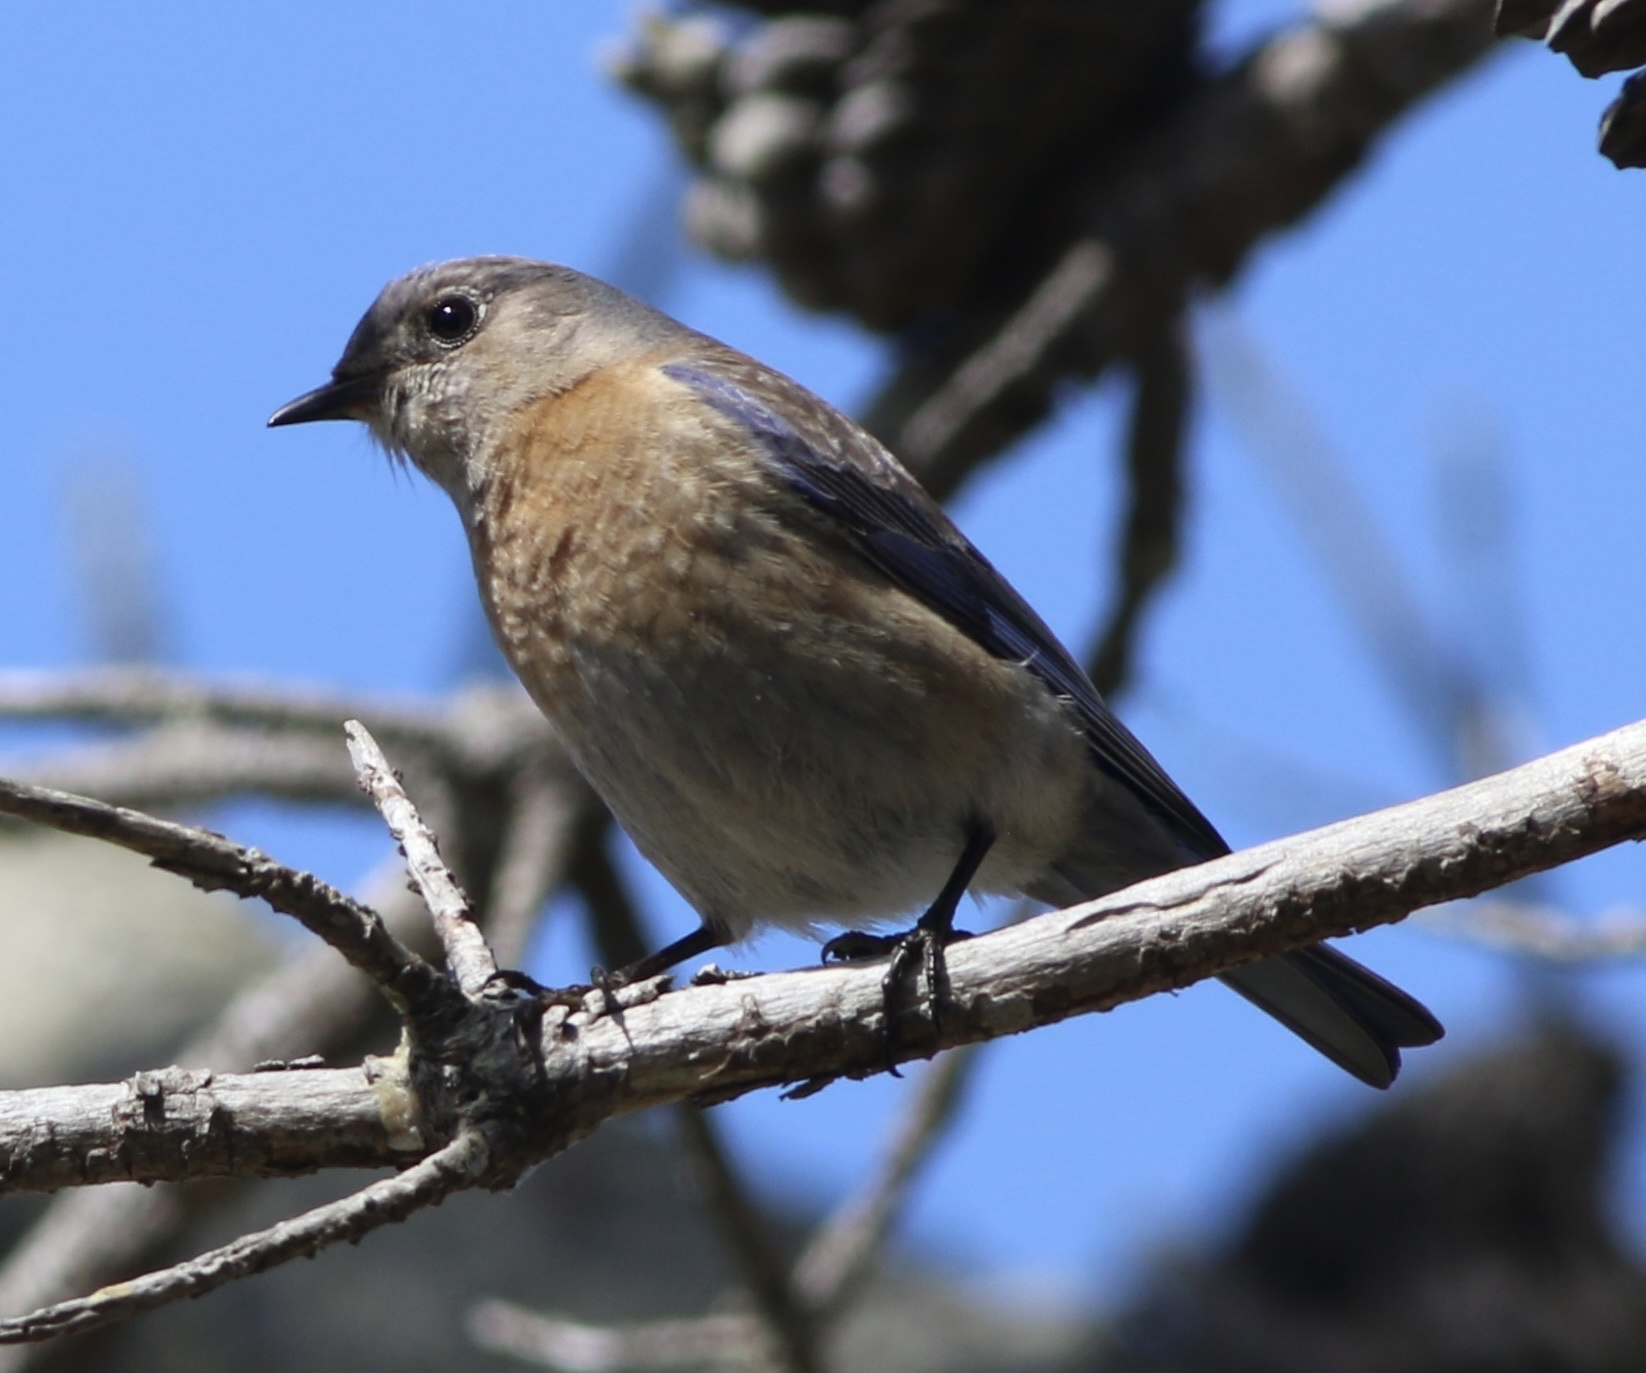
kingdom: Animalia
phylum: Chordata
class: Aves
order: Passeriformes
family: Turdidae
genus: Sialia
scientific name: Sialia mexicana
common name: Western bluebird
